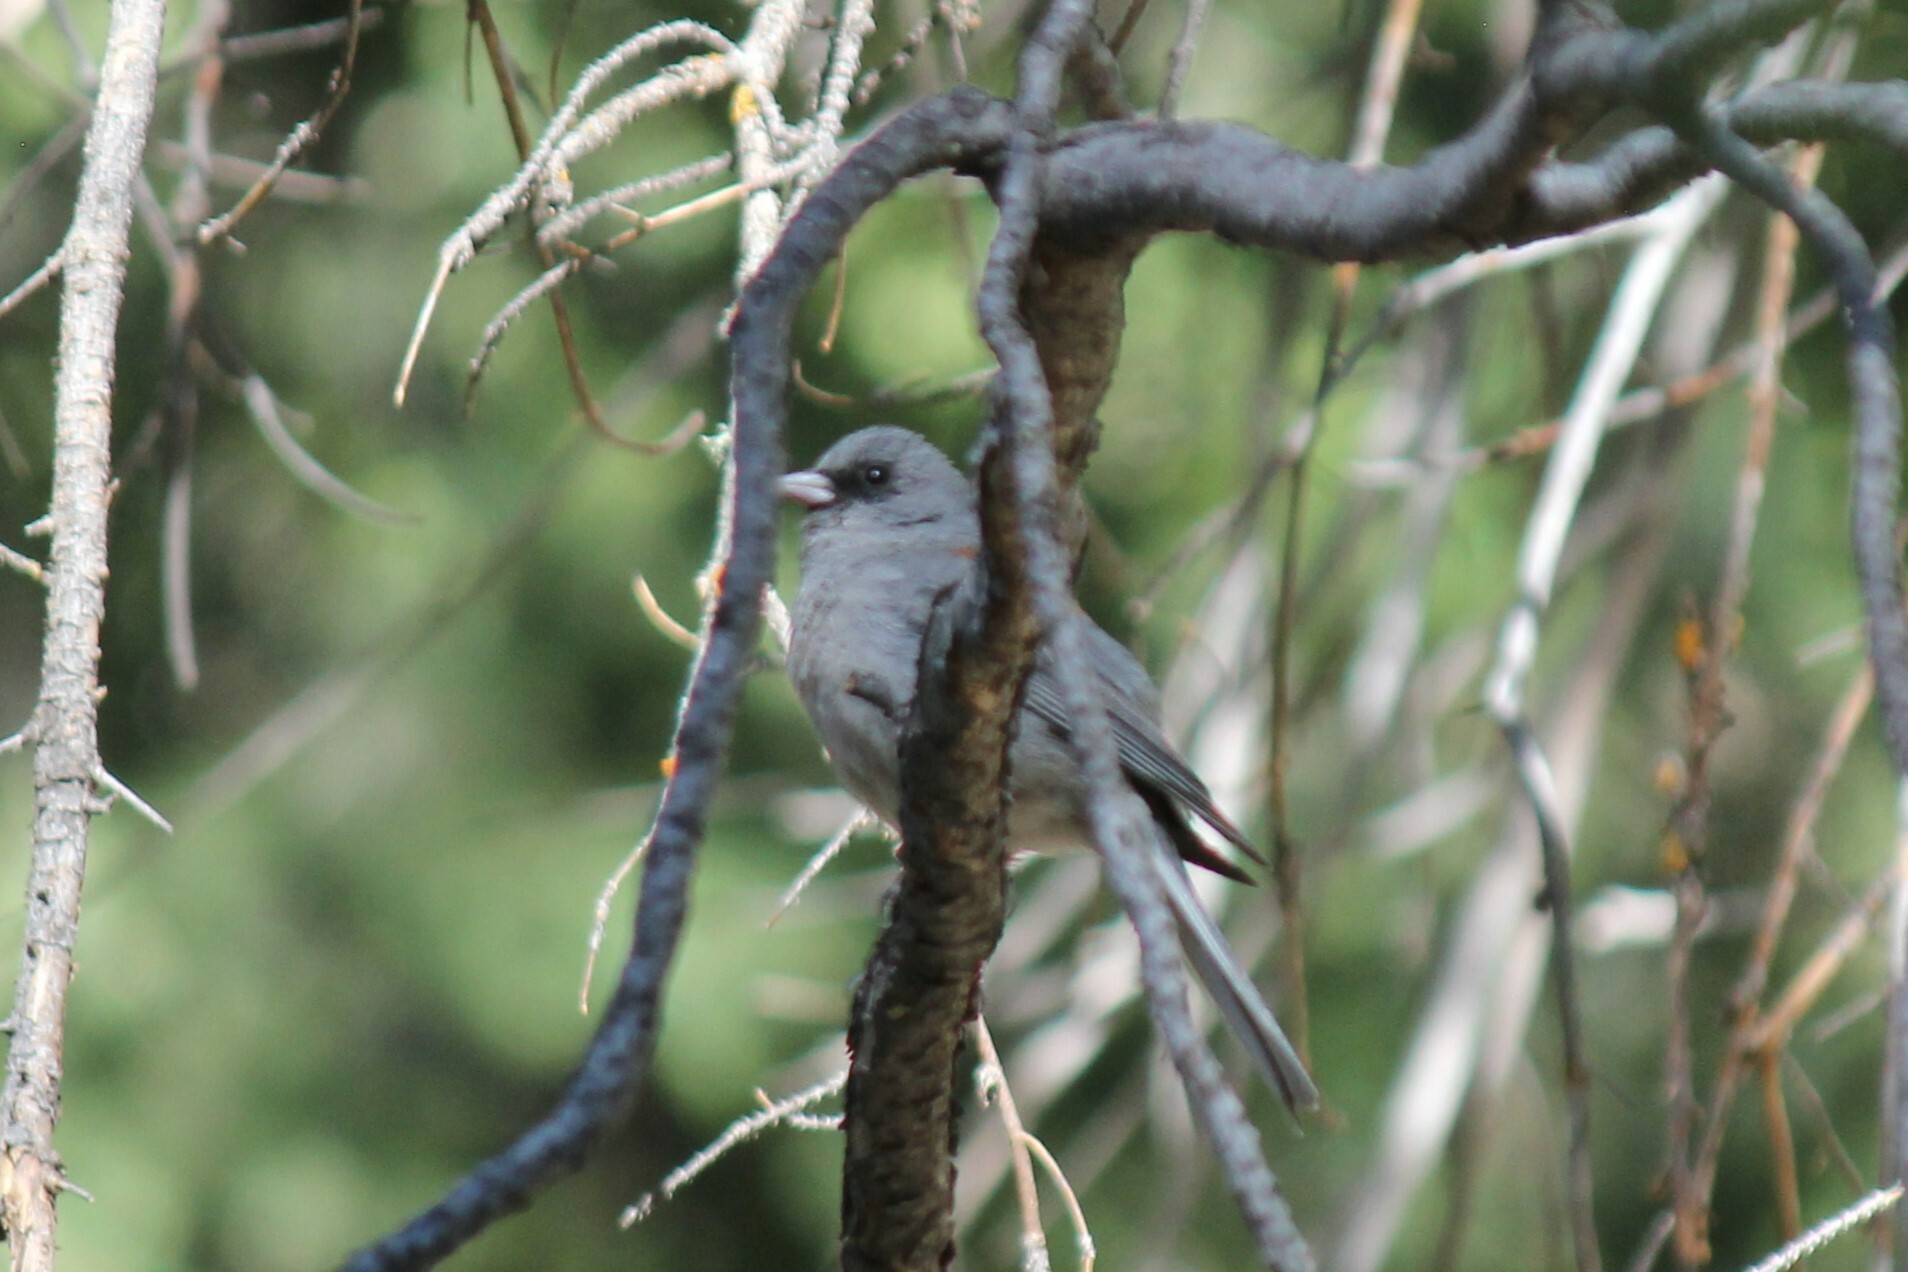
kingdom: Animalia
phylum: Chordata
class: Aves
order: Passeriformes
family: Passerellidae
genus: Junco
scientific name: Junco hyemalis
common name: Dark-eyed junco
